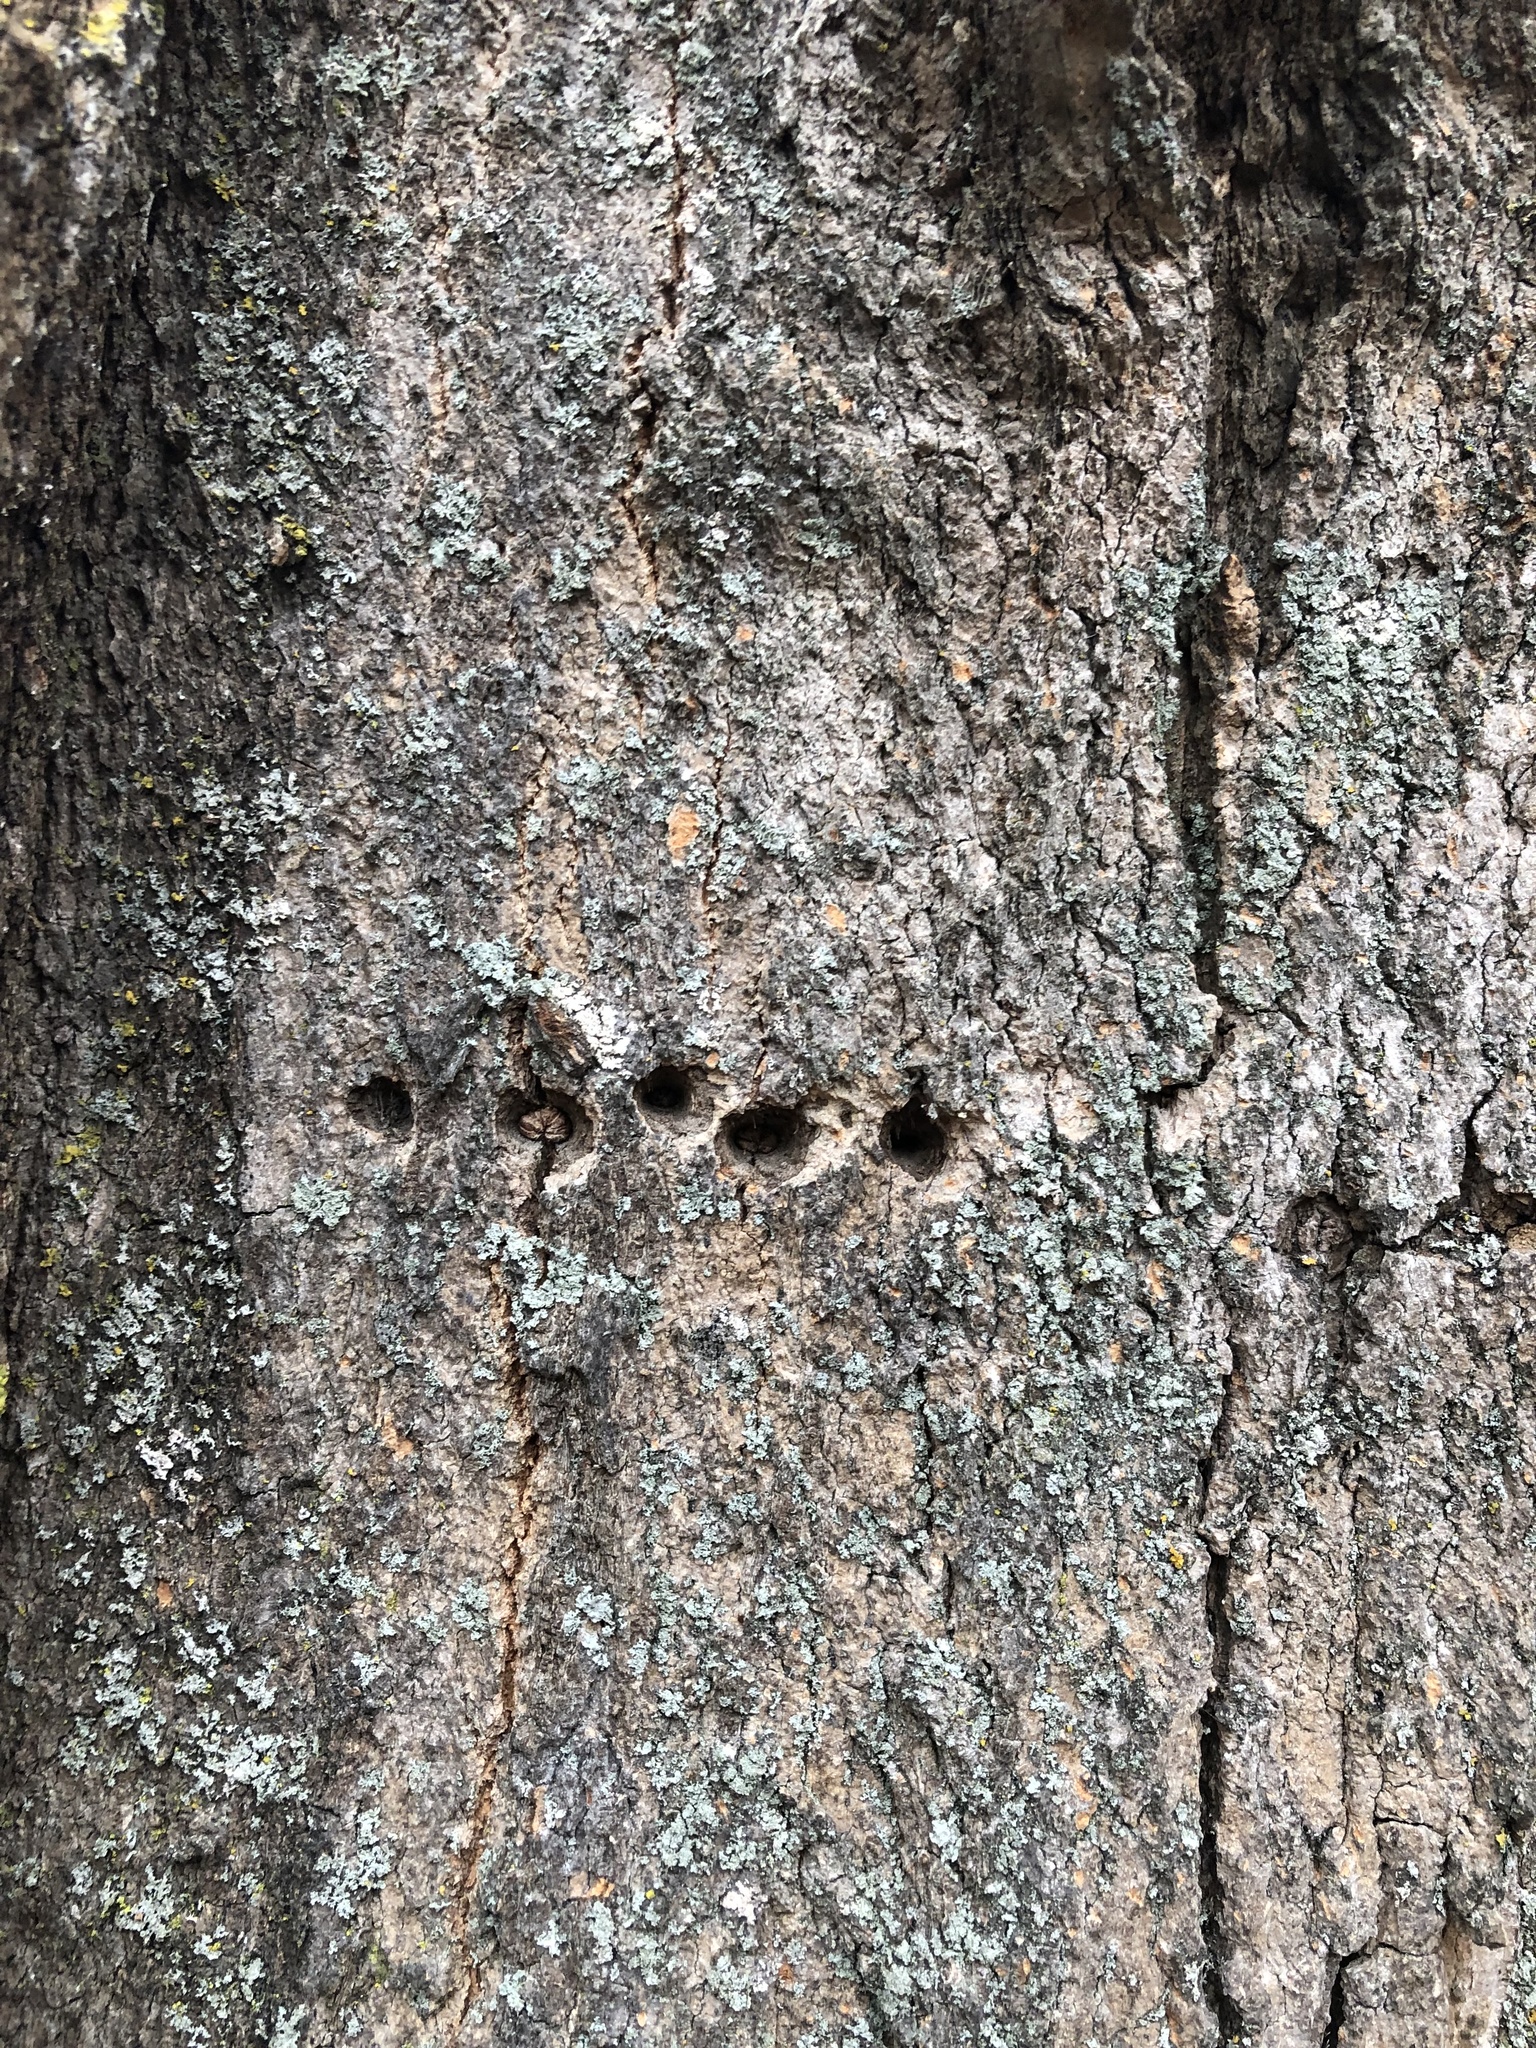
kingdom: Animalia
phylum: Chordata
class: Aves
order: Piciformes
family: Picidae
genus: Sphyrapicus
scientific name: Sphyrapicus varius
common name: Yellow-bellied sapsucker
